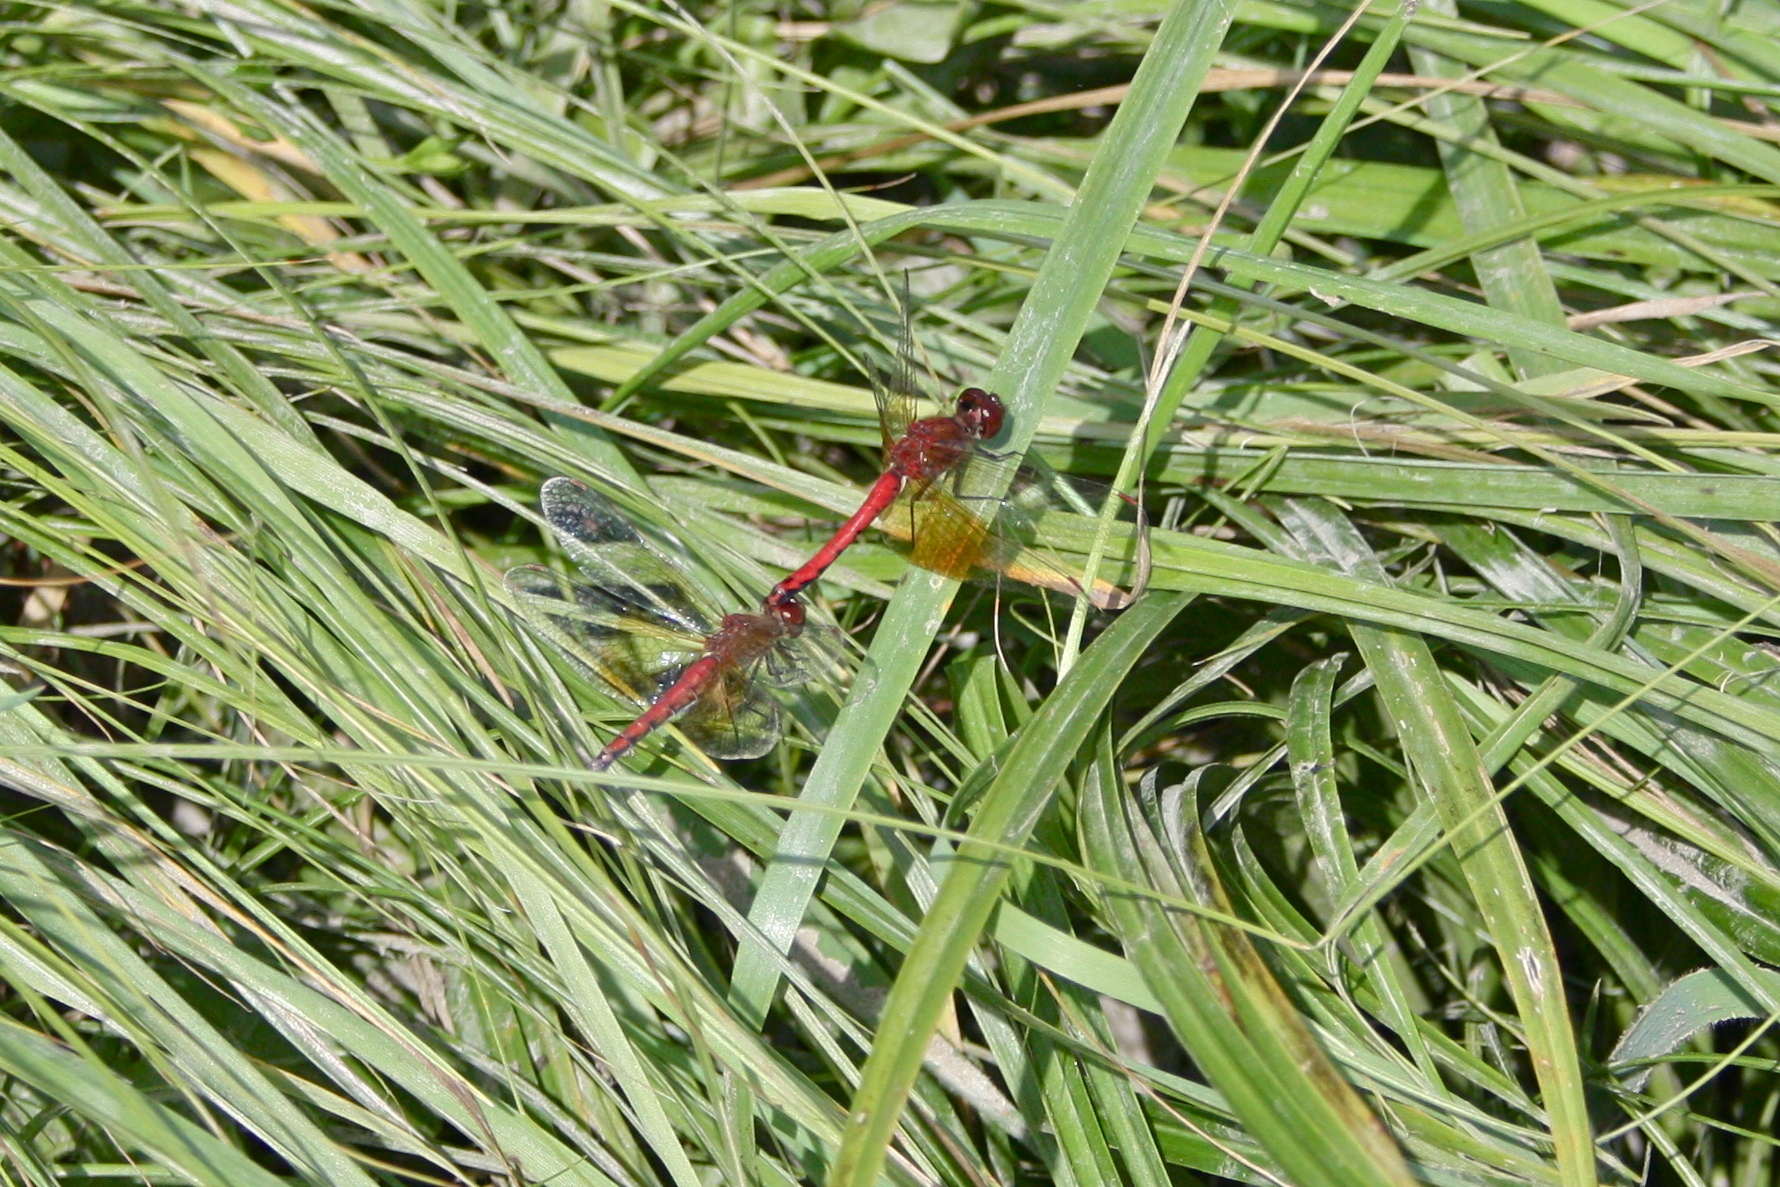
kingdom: Animalia
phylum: Arthropoda
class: Insecta
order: Odonata
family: Libellulidae
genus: Sympetrum
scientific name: Sympetrum semicinctum
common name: Band-winged meadowhawk
